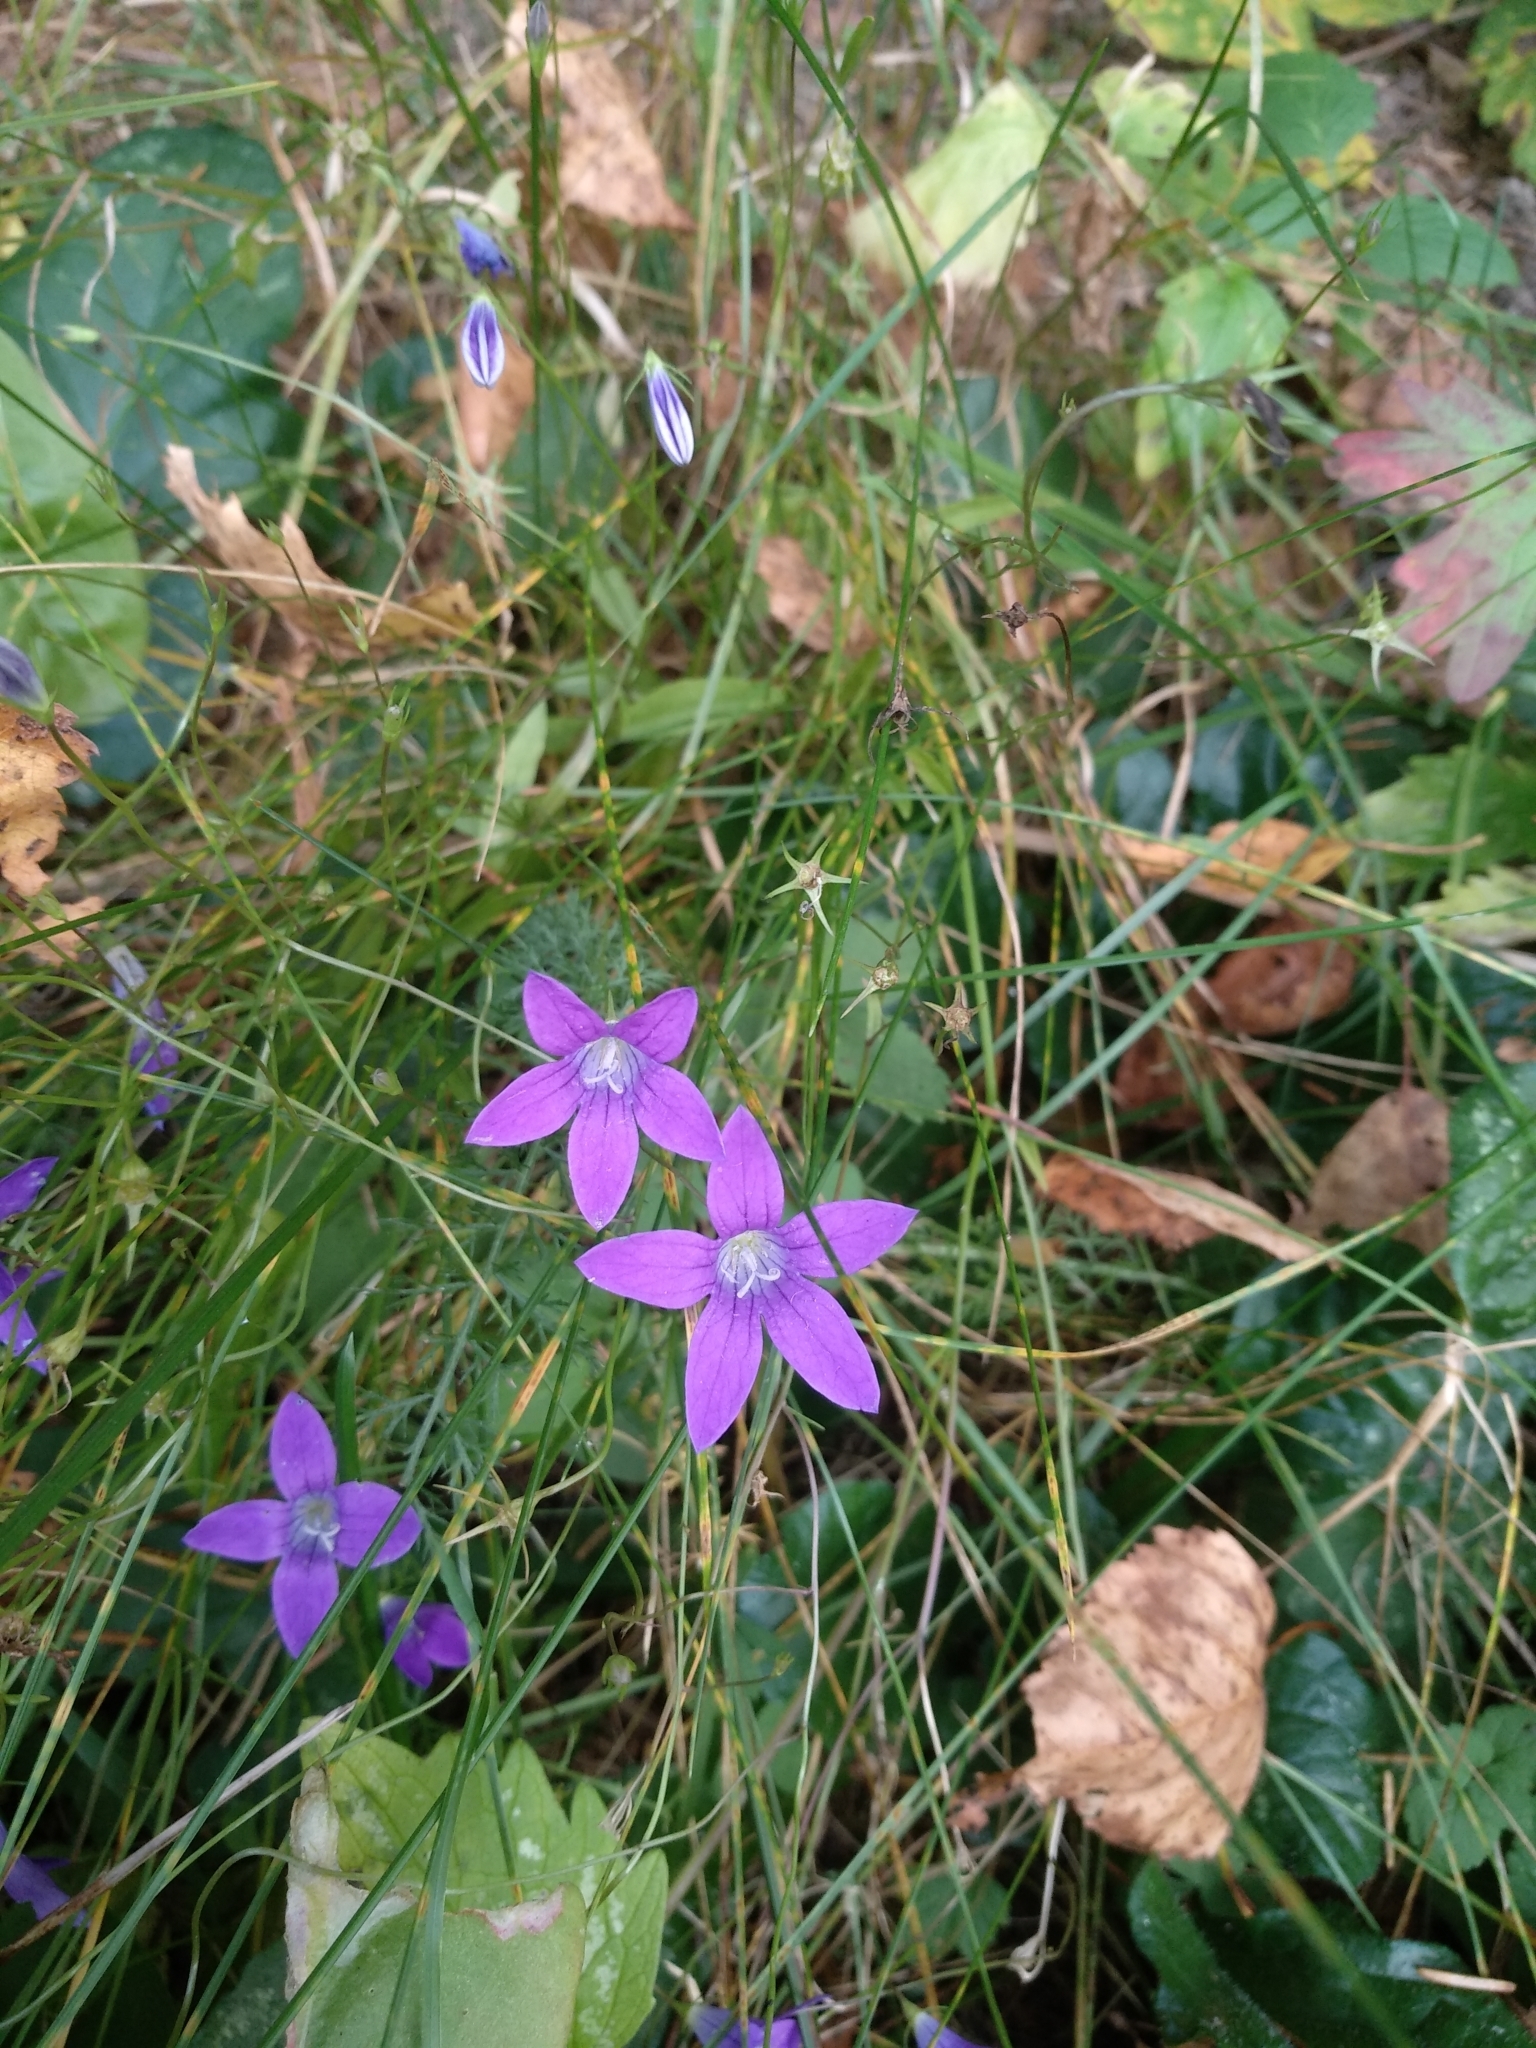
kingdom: Plantae
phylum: Tracheophyta
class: Magnoliopsida
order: Asterales
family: Campanulaceae
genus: Campanula
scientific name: Campanula patula
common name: Spreading bellflower
